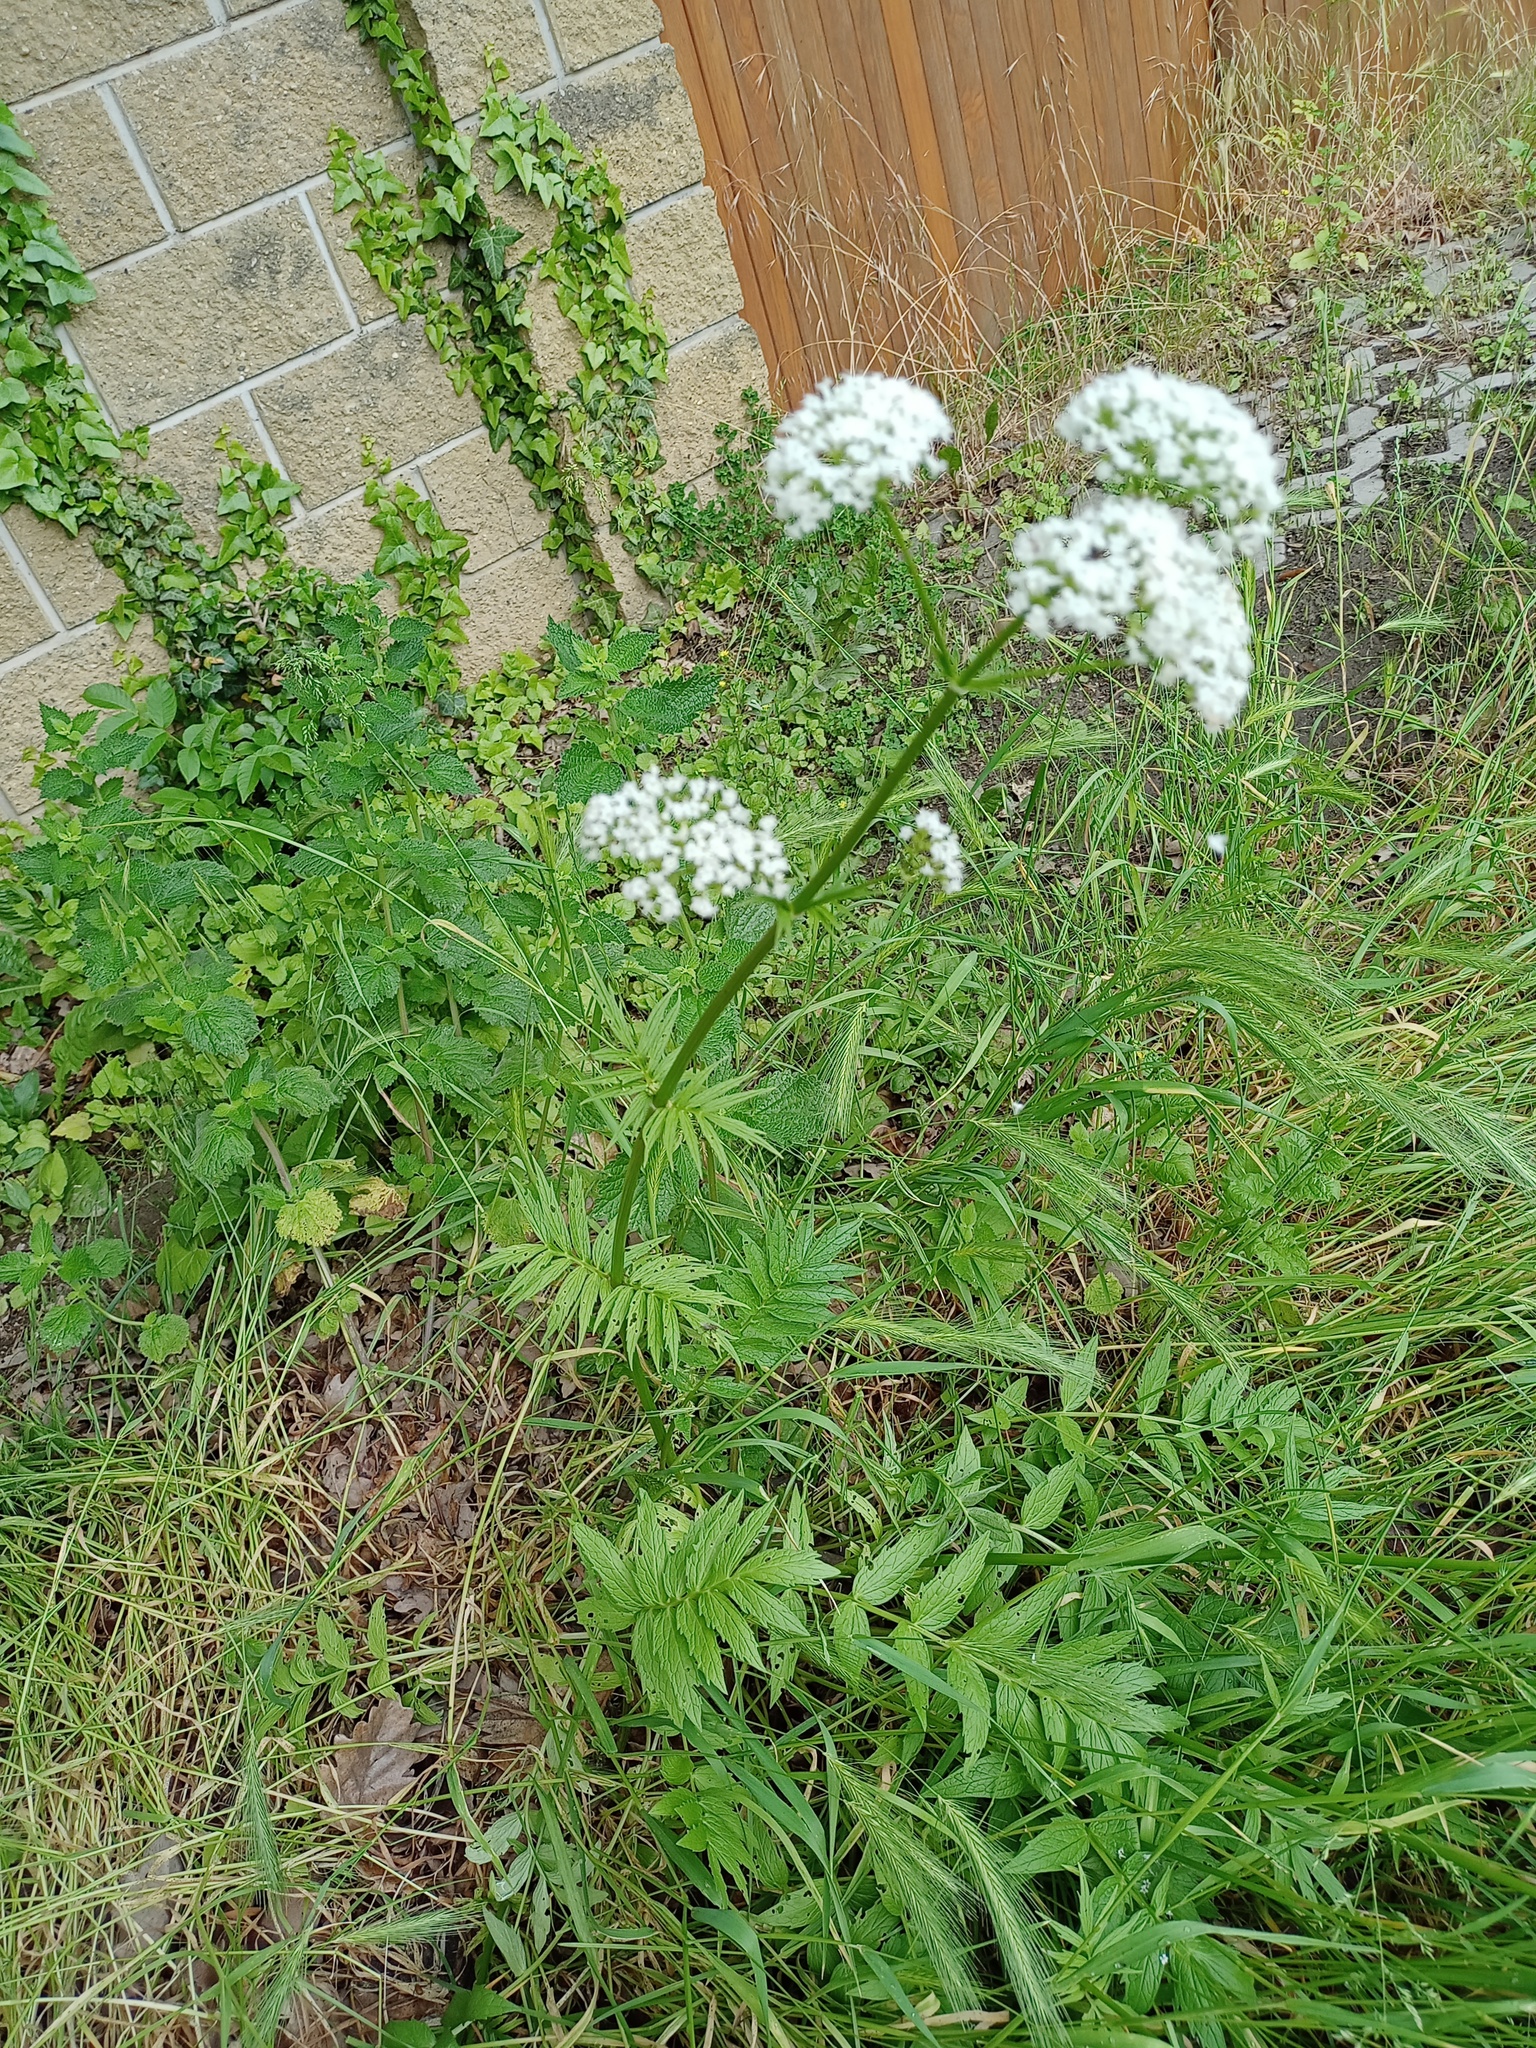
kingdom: Plantae
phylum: Tracheophyta
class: Magnoliopsida
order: Dipsacales
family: Caprifoliaceae
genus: Valeriana
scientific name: Valeriana officinalis
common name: Common valerian
